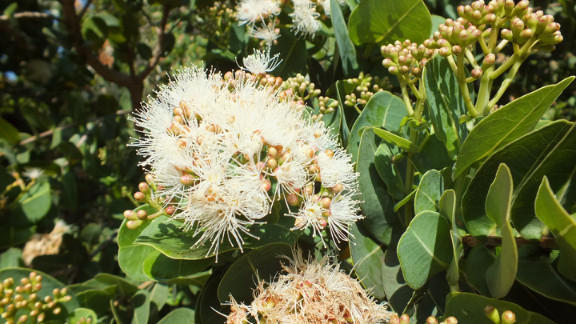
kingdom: Plantae
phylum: Tracheophyta
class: Magnoliopsida
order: Myrtales
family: Myrtaceae
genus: Syzygium
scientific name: Syzygium cordatum
